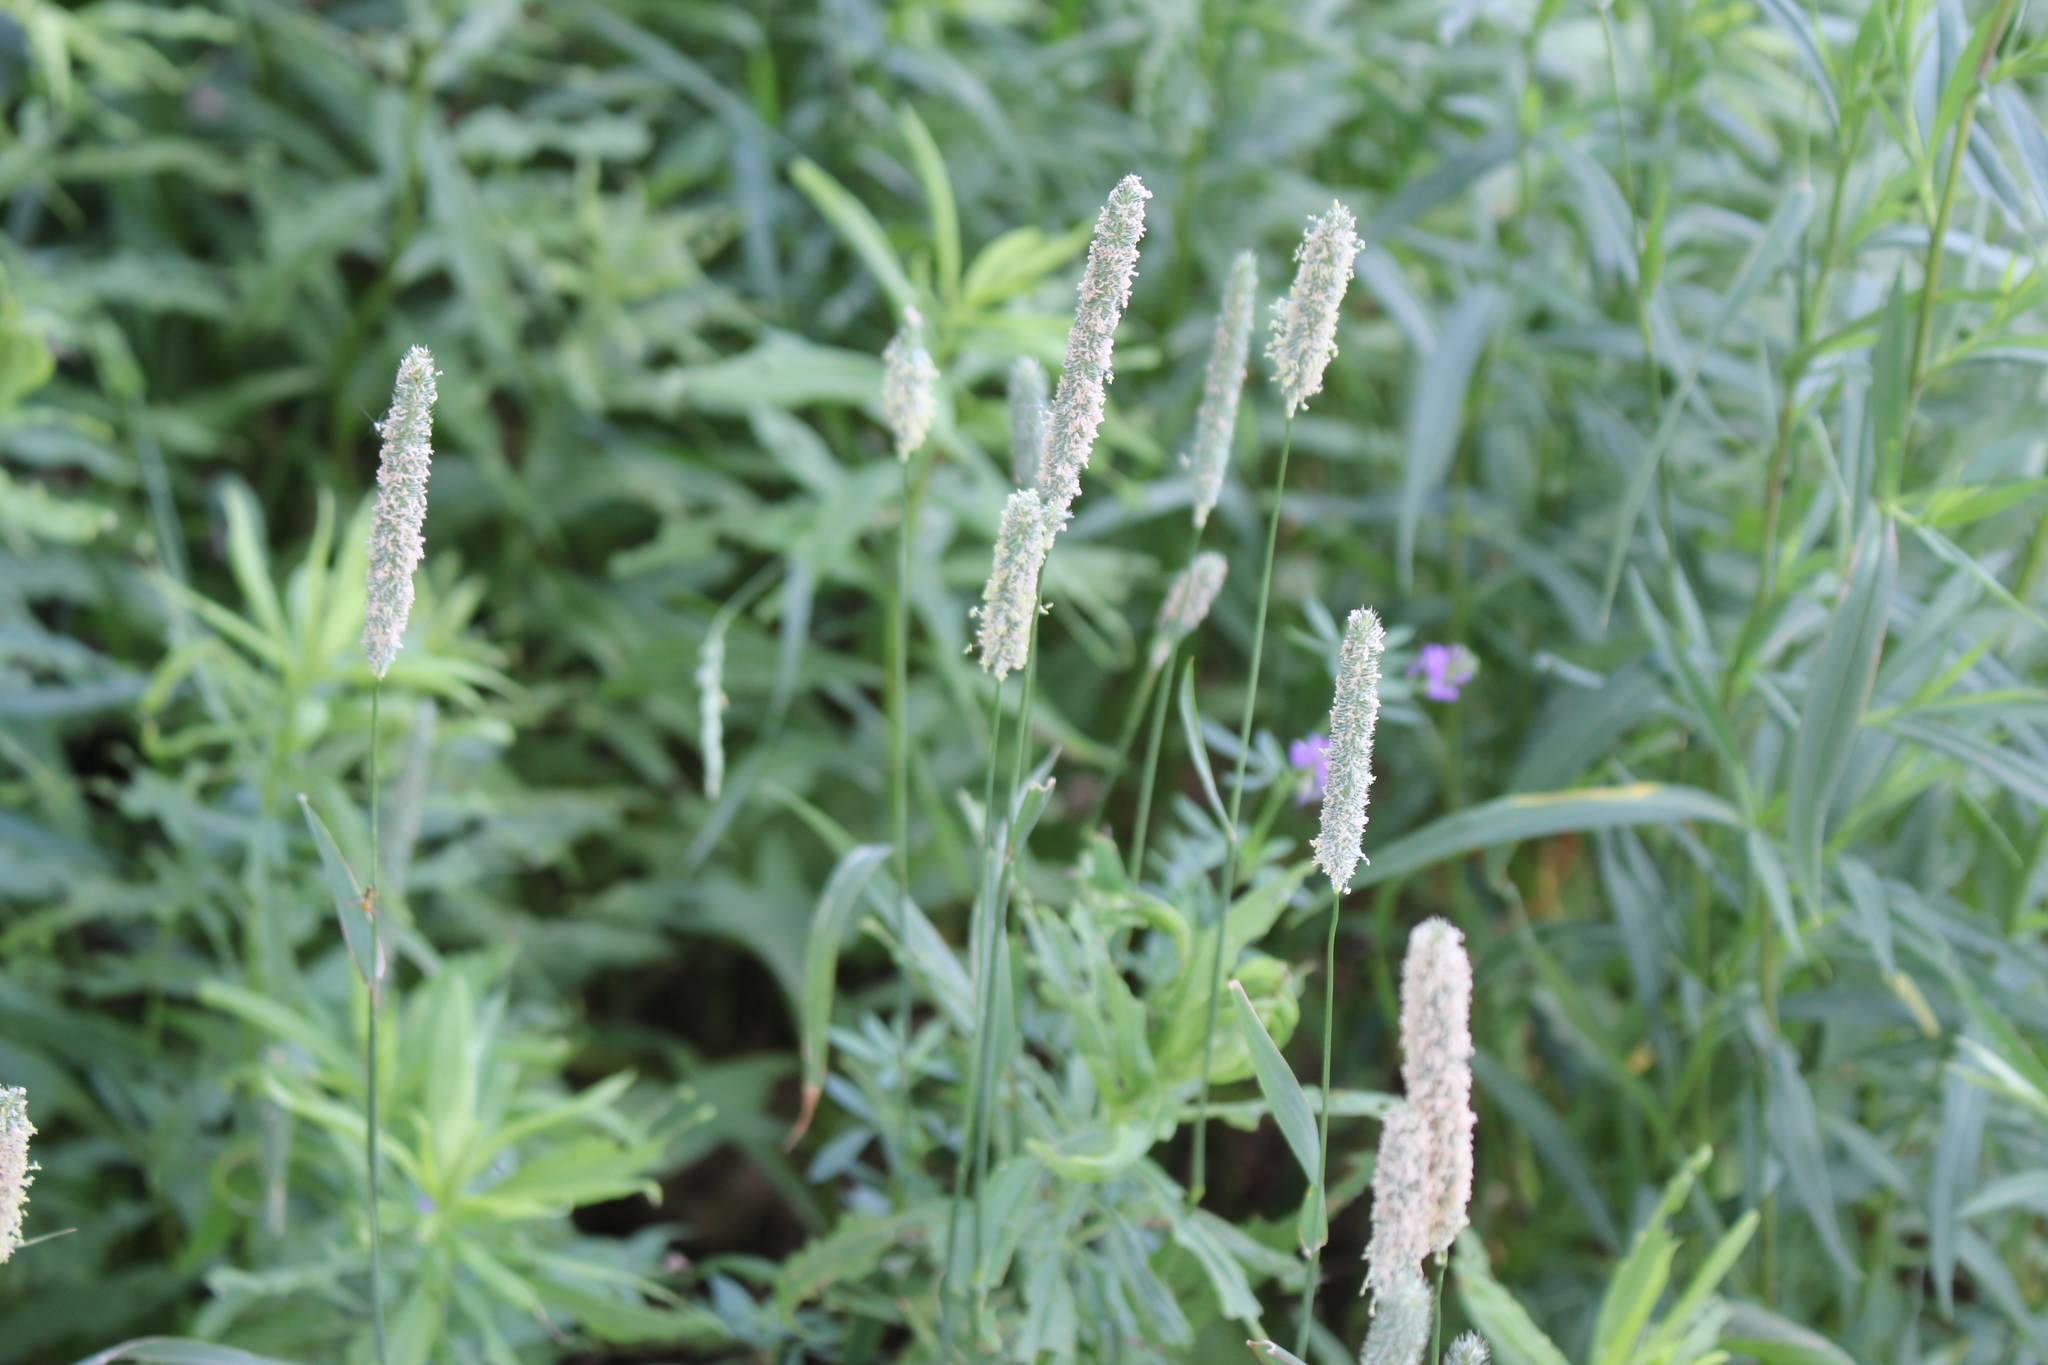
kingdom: Plantae
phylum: Tracheophyta
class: Liliopsida
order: Poales
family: Poaceae
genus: Phleum
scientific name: Phleum pratense
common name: Timothy grass
